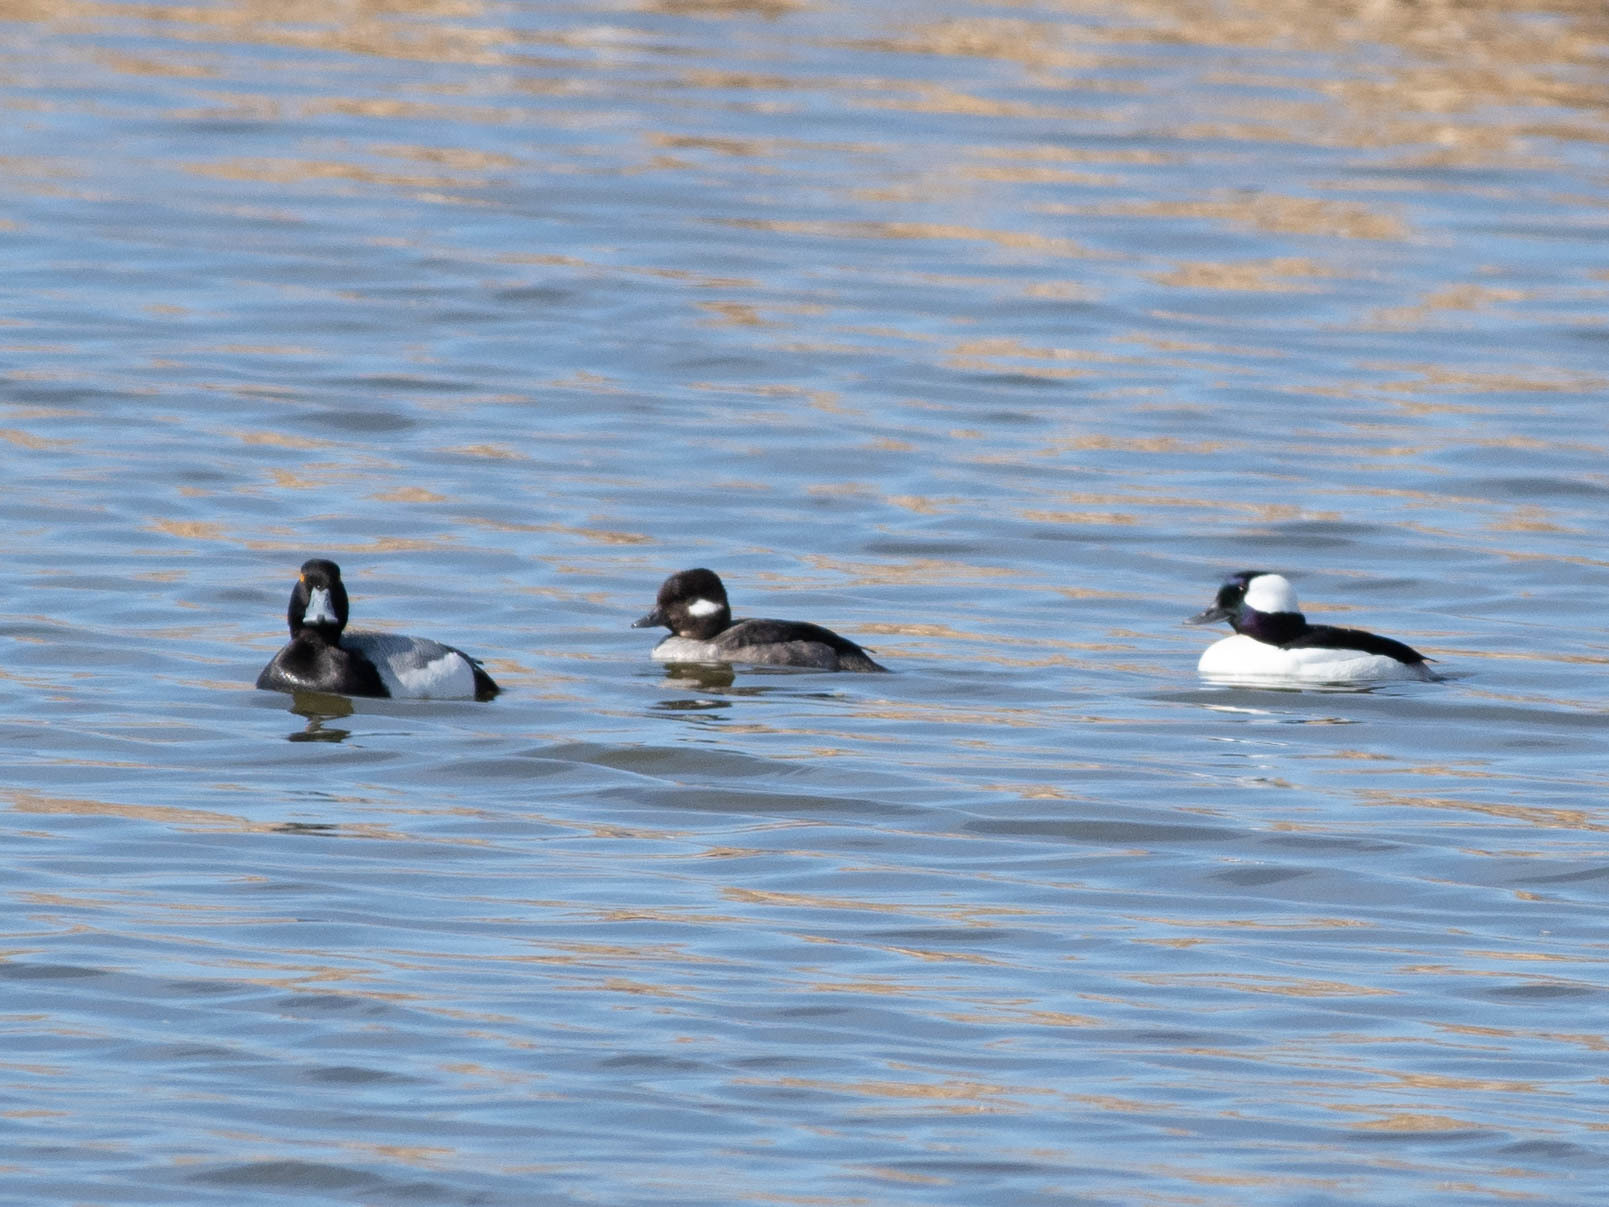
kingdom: Animalia
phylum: Chordata
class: Aves
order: Anseriformes
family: Anatidae
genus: Bucephala
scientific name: Bucephala albeola
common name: Bufflehead
